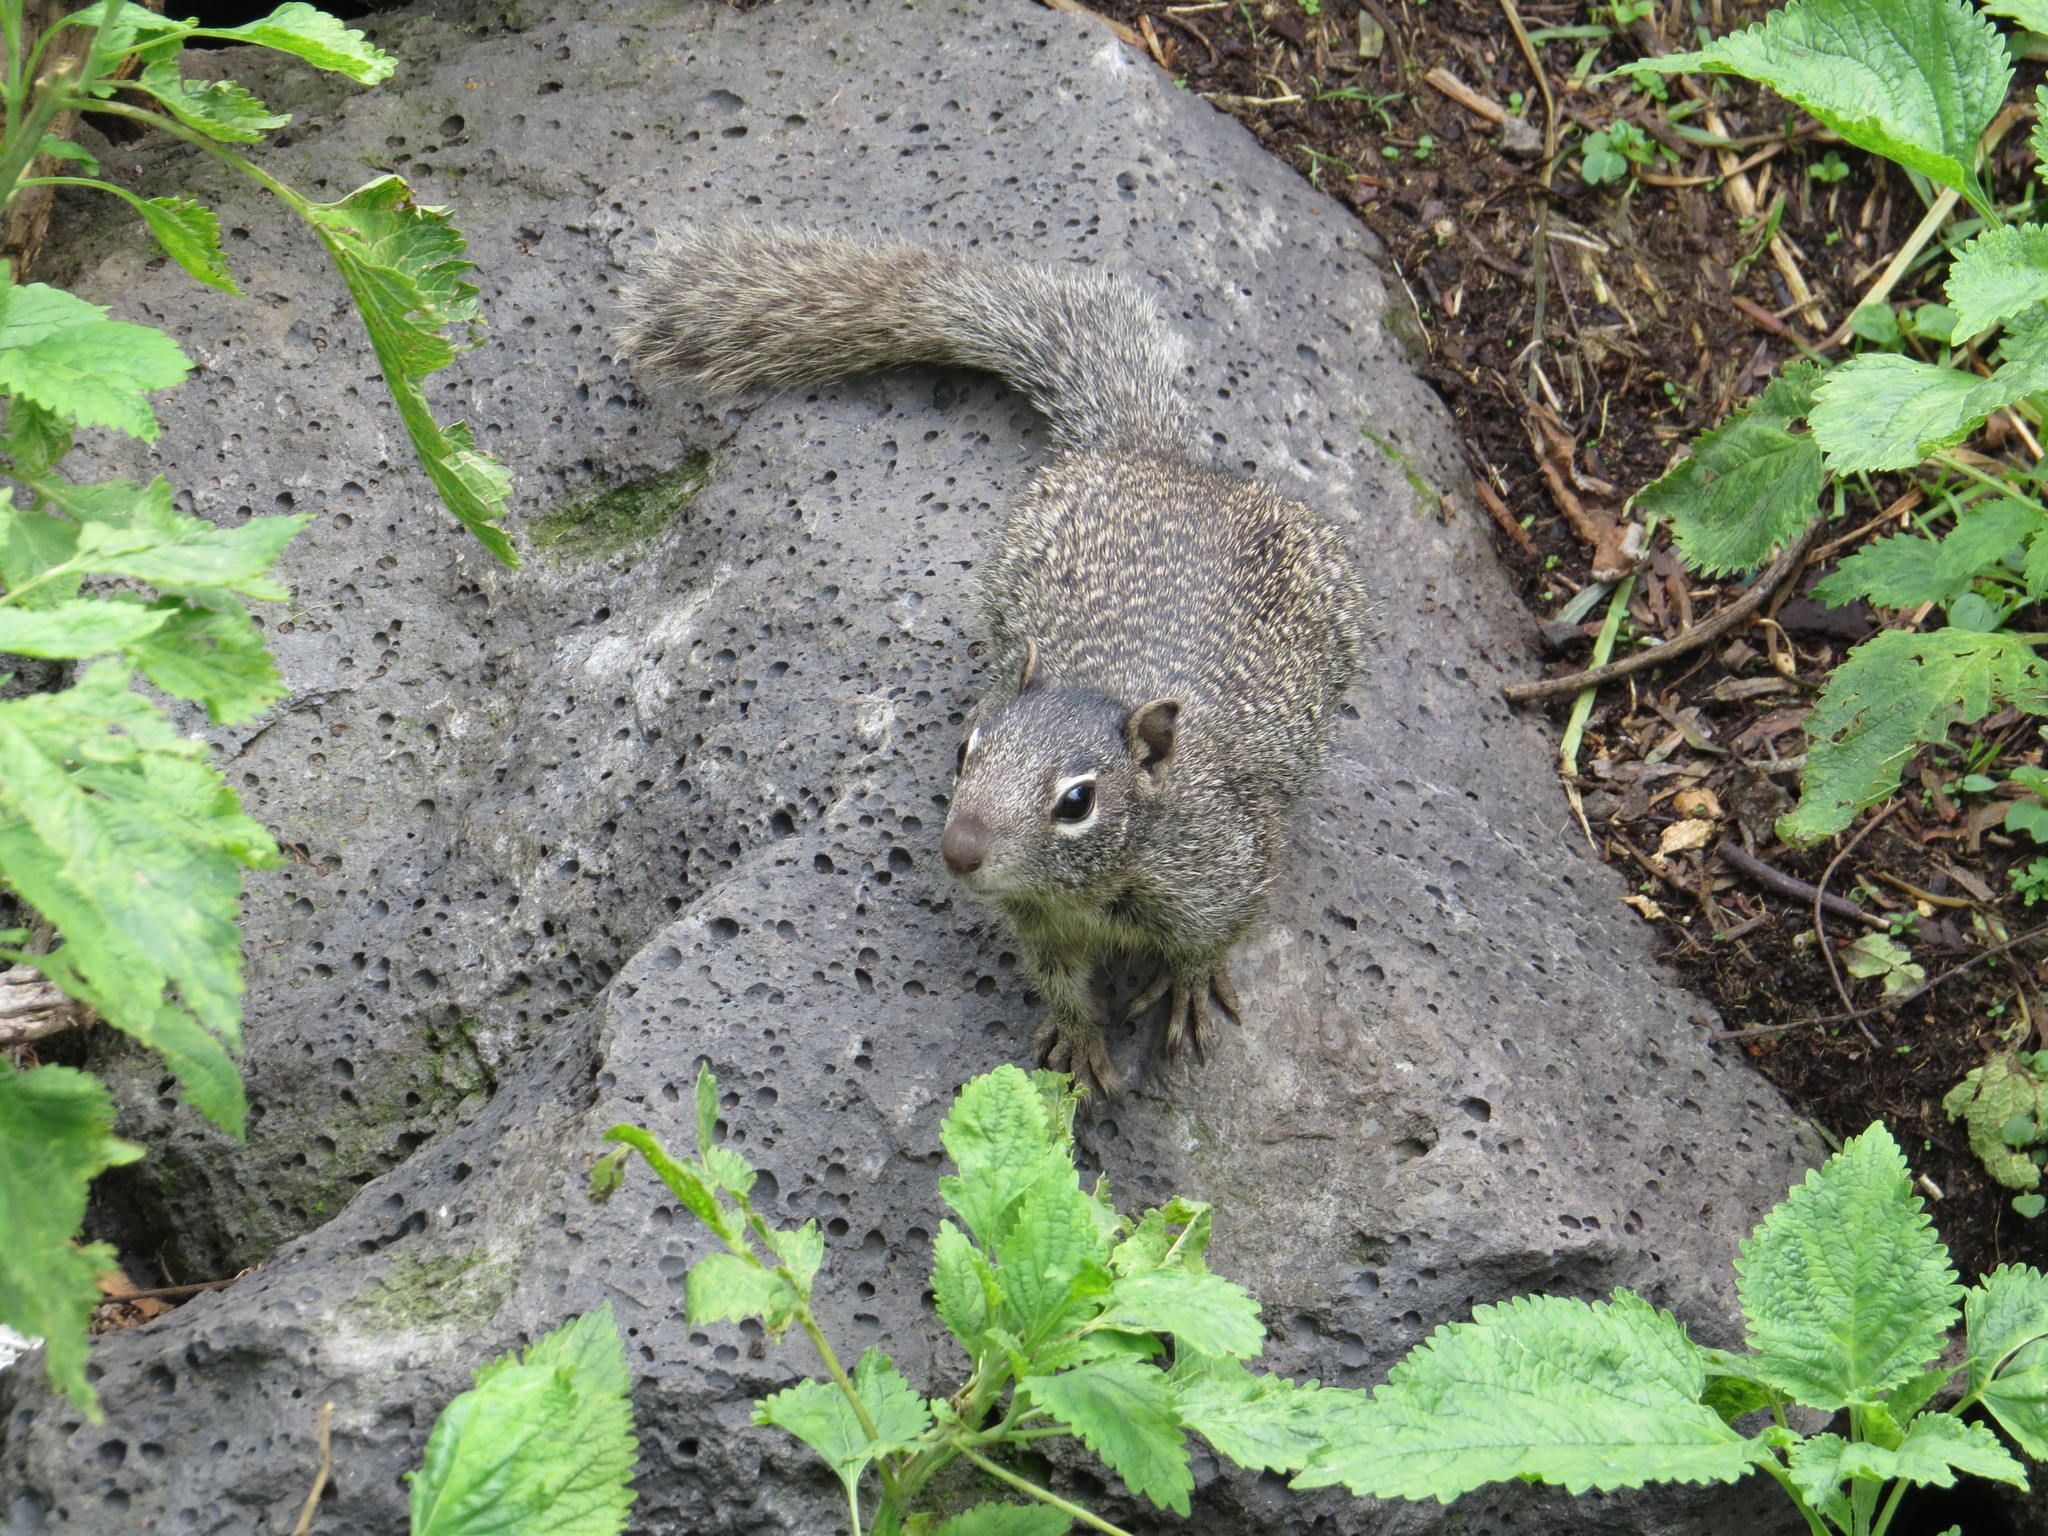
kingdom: Animalia
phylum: Chordata
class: Mammalia
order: Rodentia
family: Sciuridae
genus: Otospermophilus
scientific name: Otospermophilus variegatus
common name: Rock squirrel
